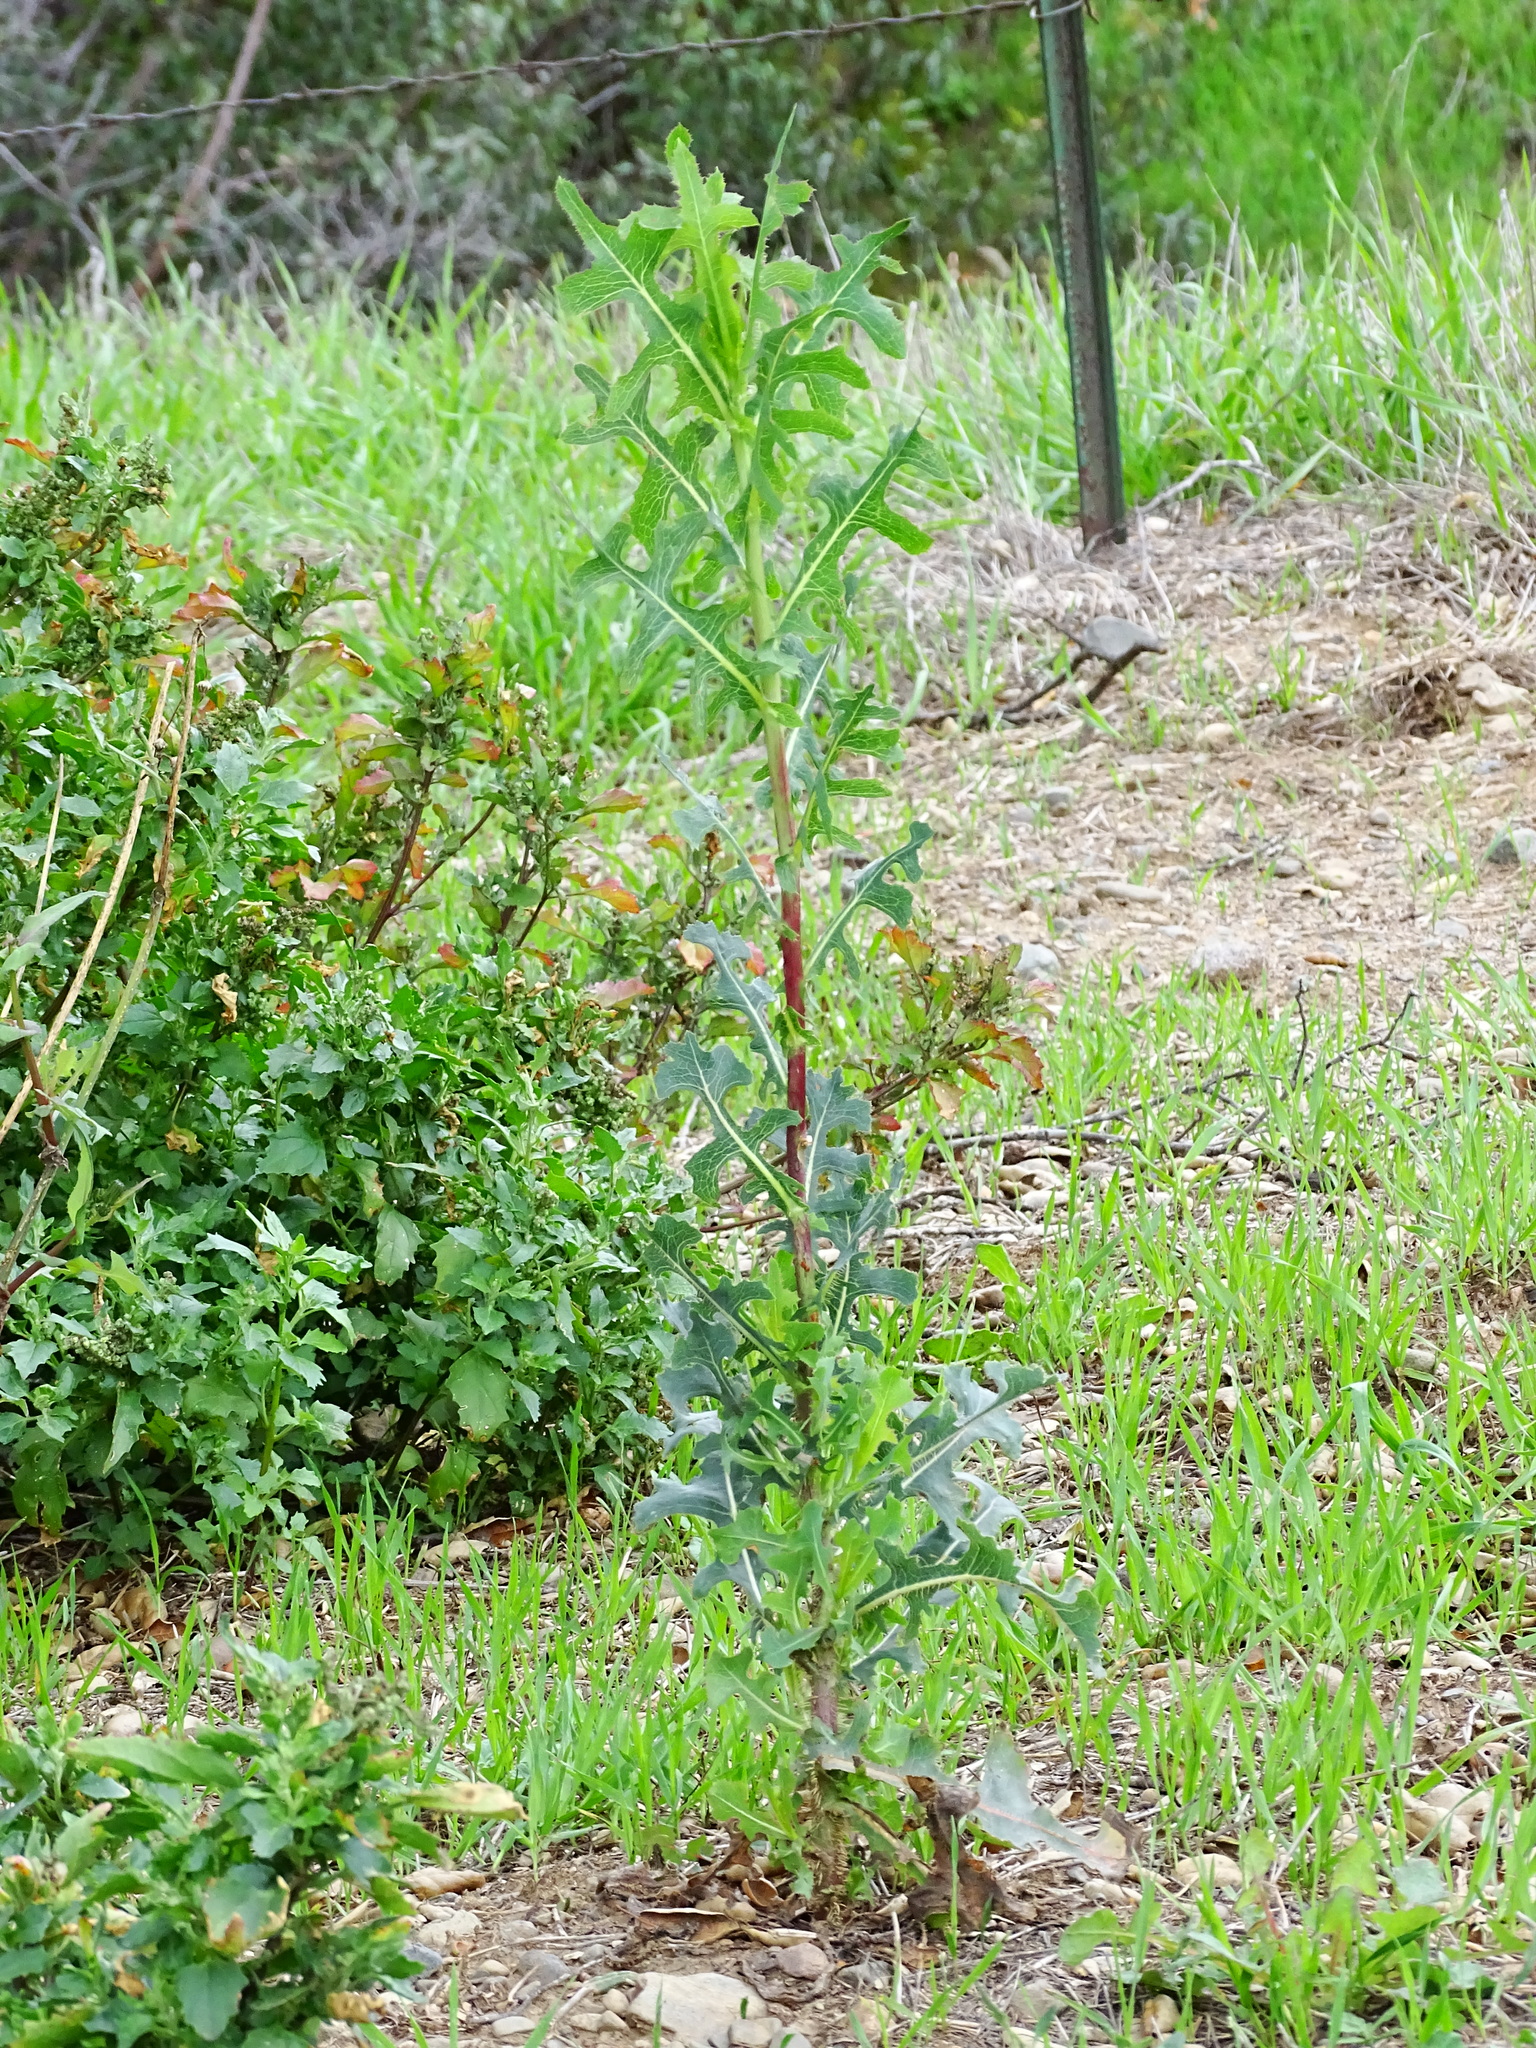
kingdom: Plantae
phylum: Tracheophyta
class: Magnoliopsida
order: Asterales
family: Asteraceae
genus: Lactuca
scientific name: Lactuca serriola
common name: Prickly lettuce
